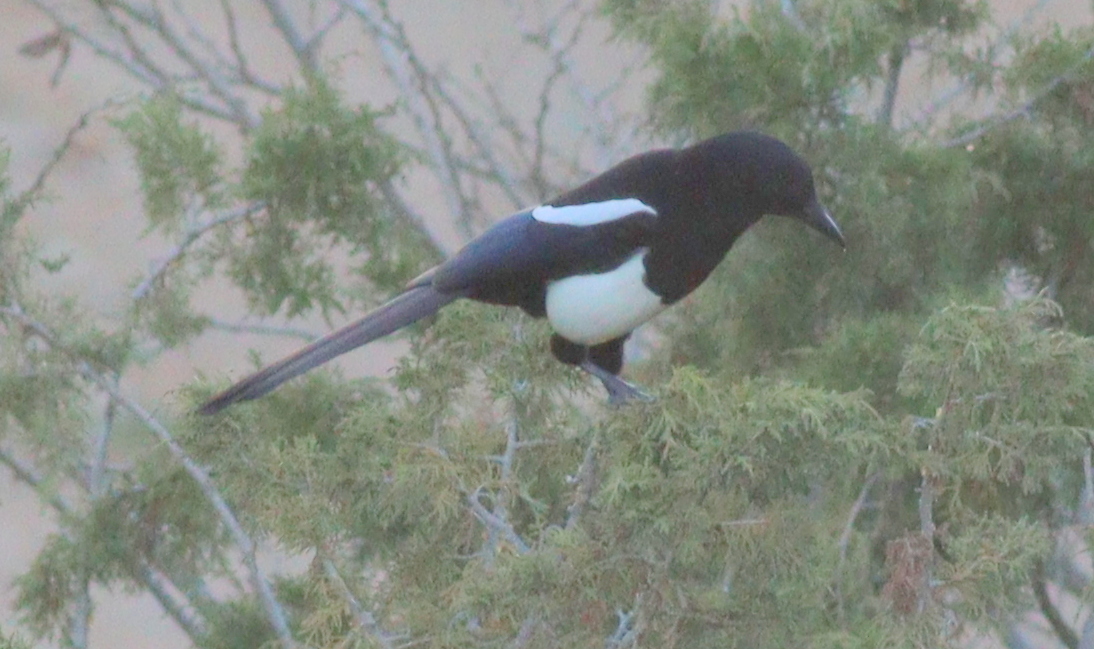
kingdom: Animalia
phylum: Chordata
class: Aves
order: Passeriformes
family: Corvidae
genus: Pica
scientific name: Pica asirensis
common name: Asir magpie
